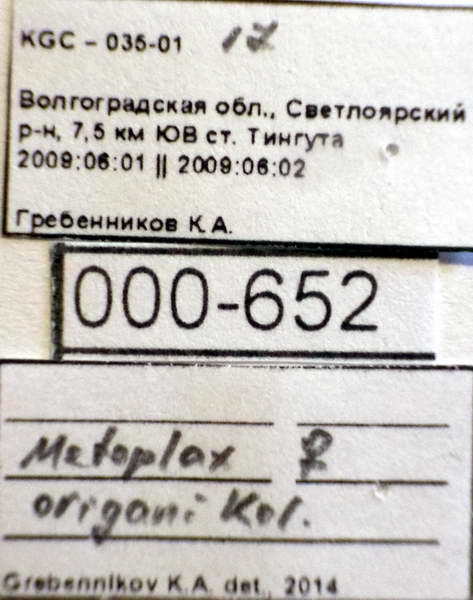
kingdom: Animalia
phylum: Arthropoda
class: Insecta
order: Hemiptera
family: Oxycarenidae
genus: Metopoplax
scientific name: Metopoplax origani
